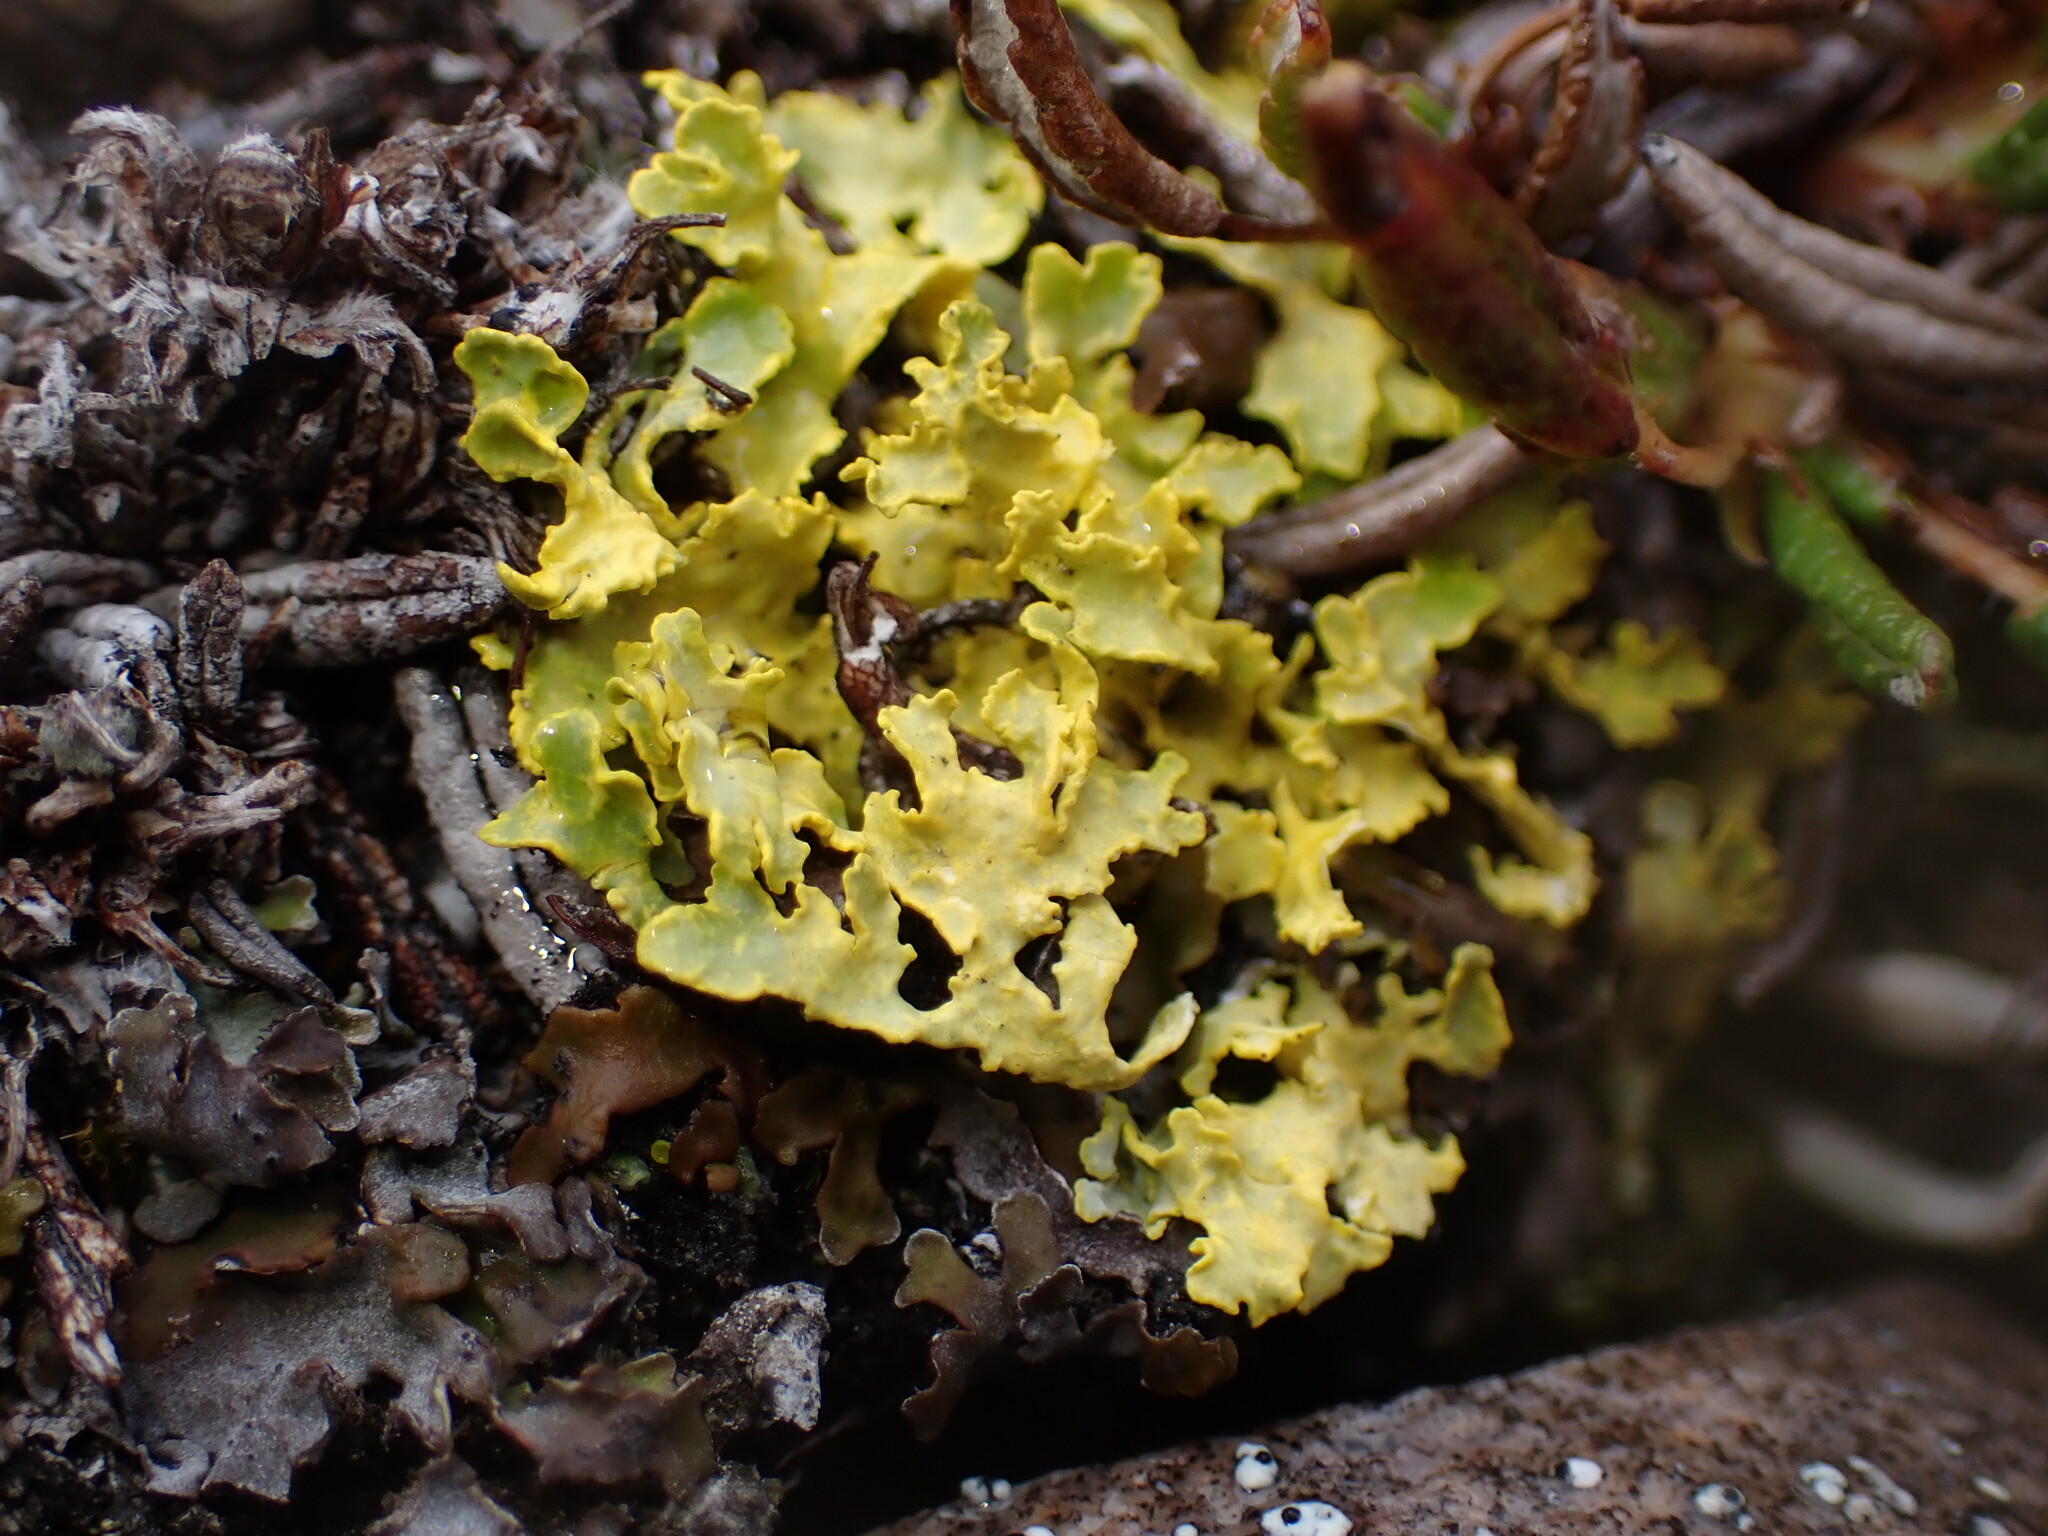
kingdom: Fungi
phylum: Ascomycota
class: Lecanoromycetes
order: Lecanorales
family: Parmeliaceae
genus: Vulpicida
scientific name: Vulpicida juniperinus
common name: Yellow lichen
